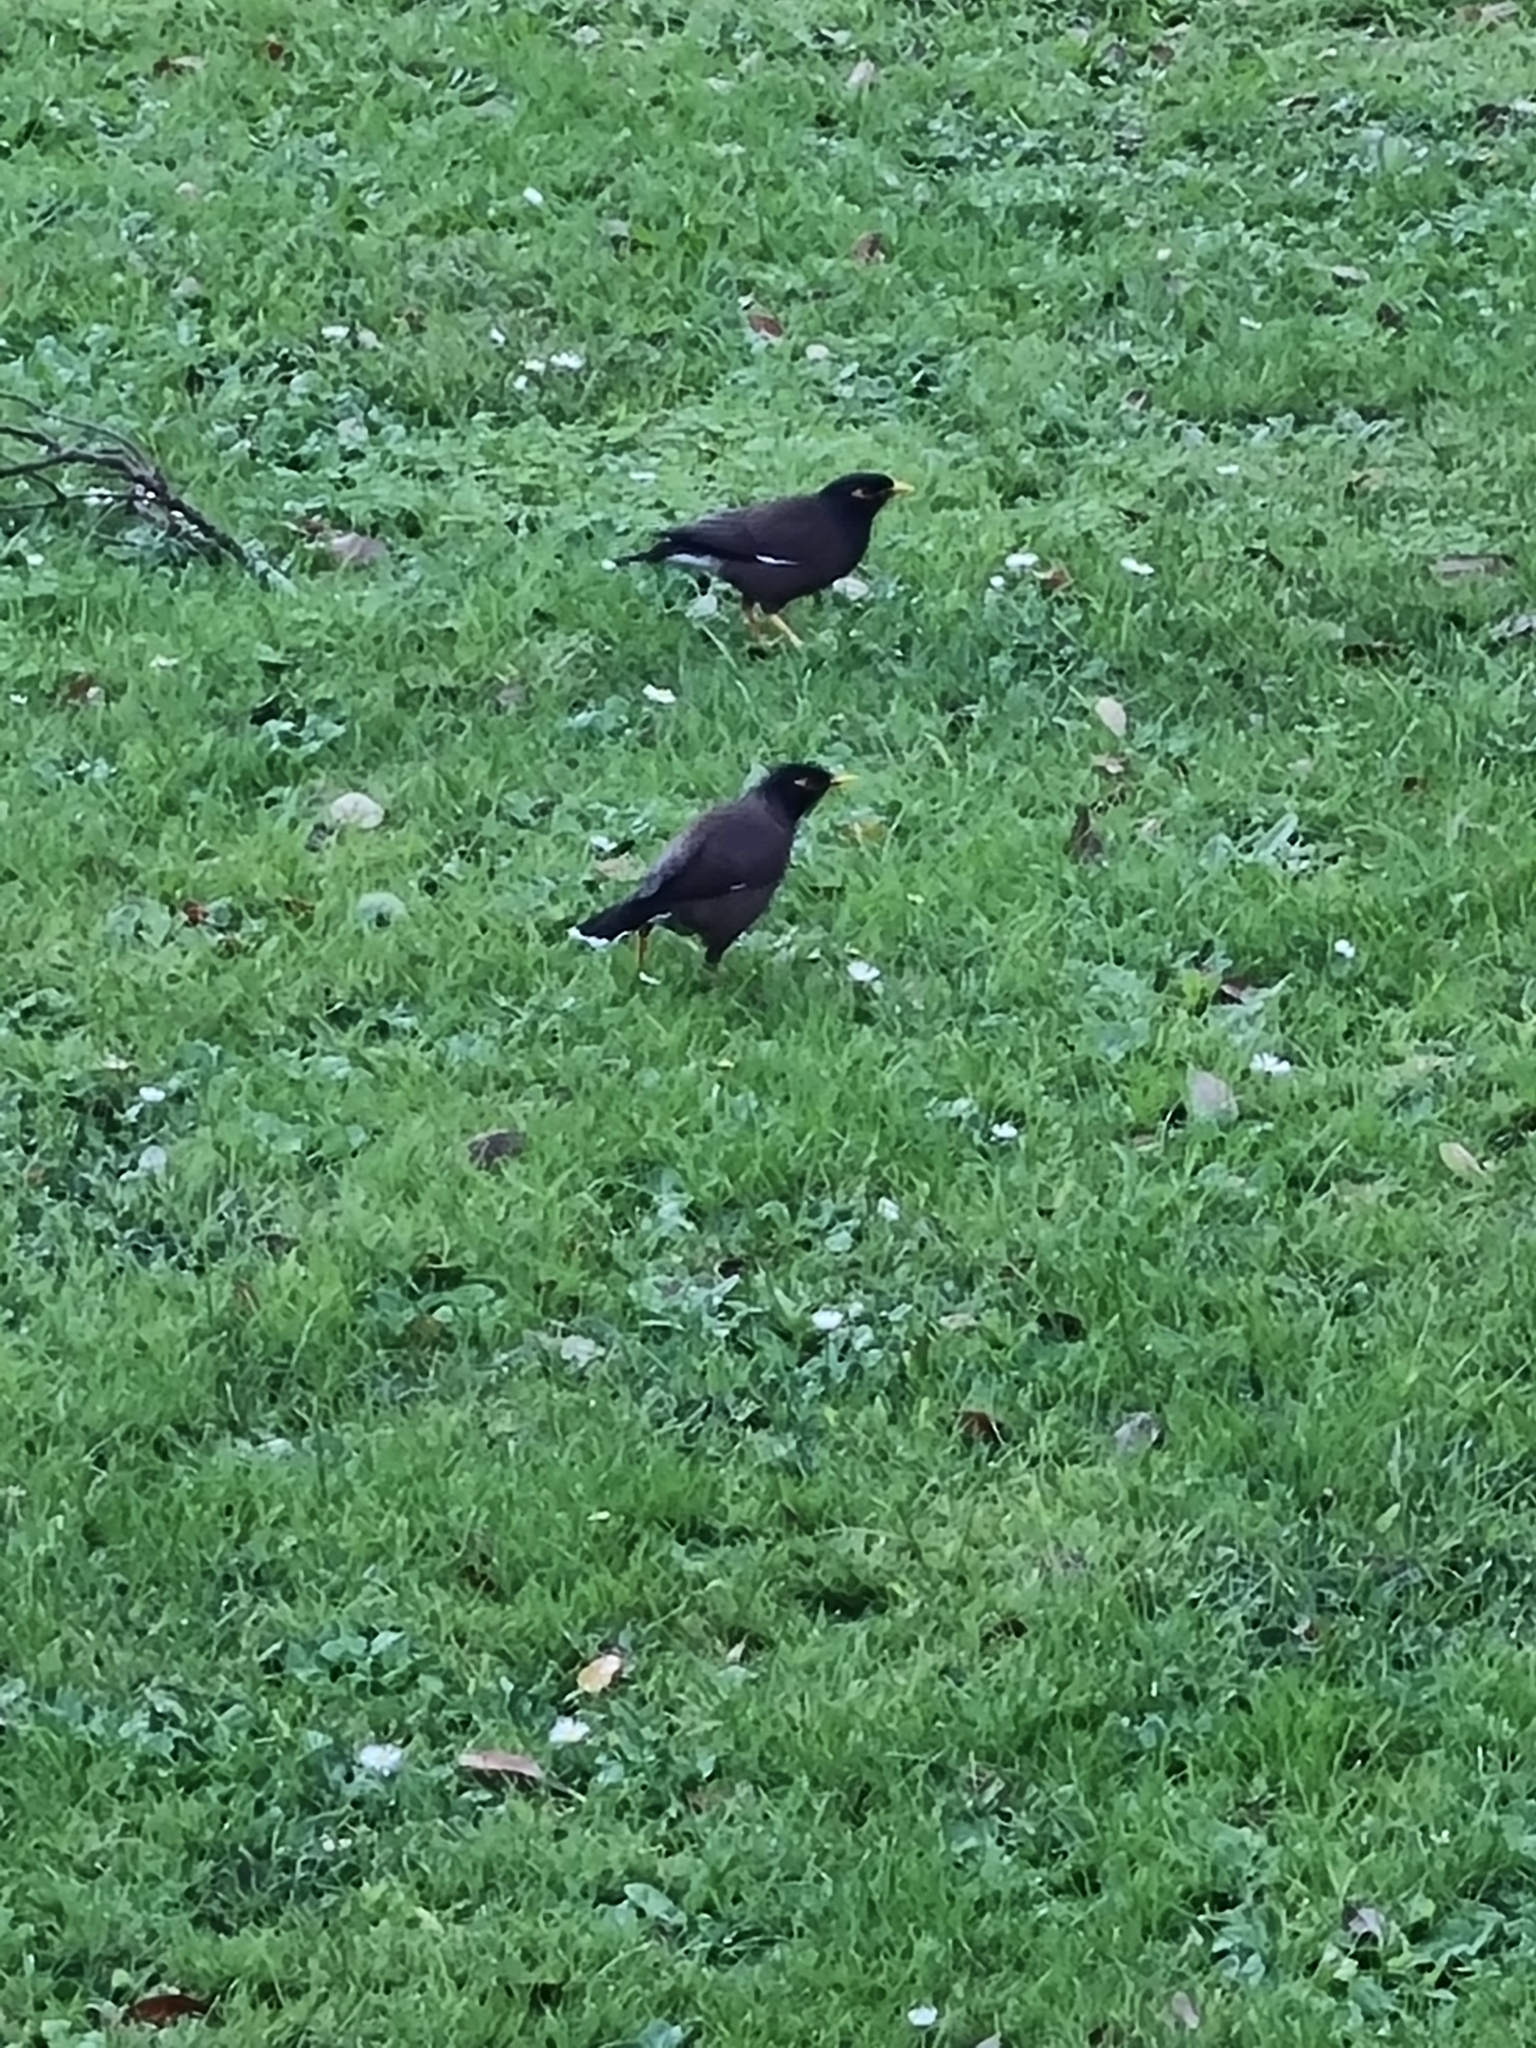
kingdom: Animalia
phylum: Chordata
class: Aves
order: Passeriformes
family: Sturnidae
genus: Acridotheres
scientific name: Acridotheres tristis
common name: Common myna
